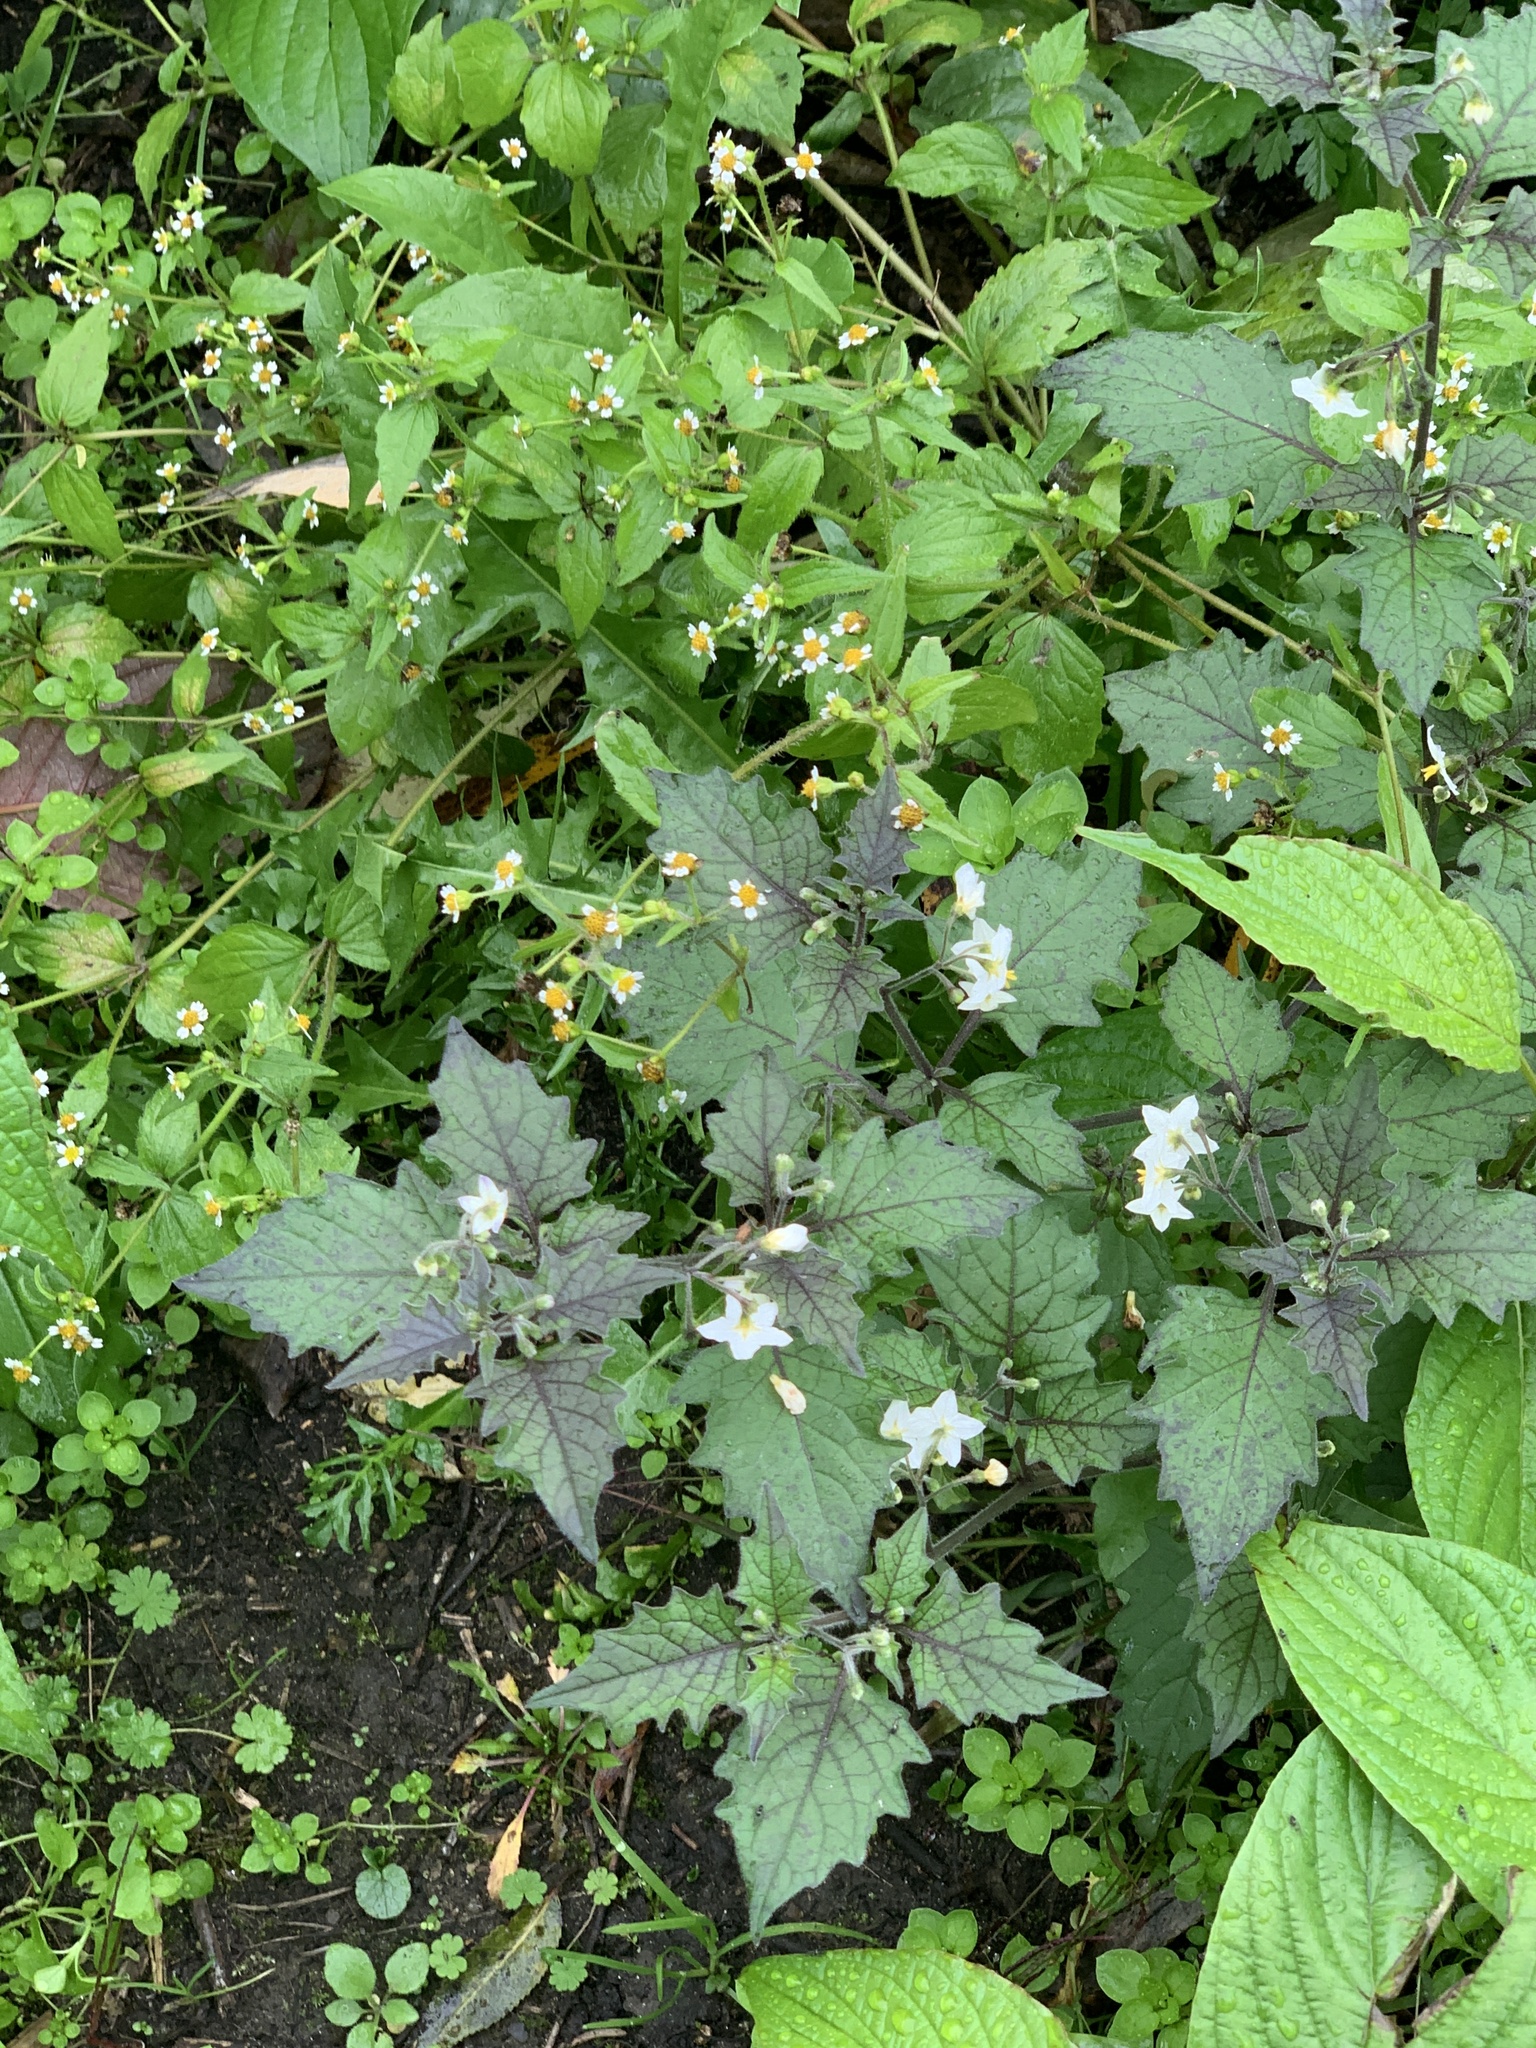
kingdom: Plantae
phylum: Tracheophyta
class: Magnoliopsida
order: Solanales
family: Solanaceae
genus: Solanum
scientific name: Solanum nigrum
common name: Black nightshade
